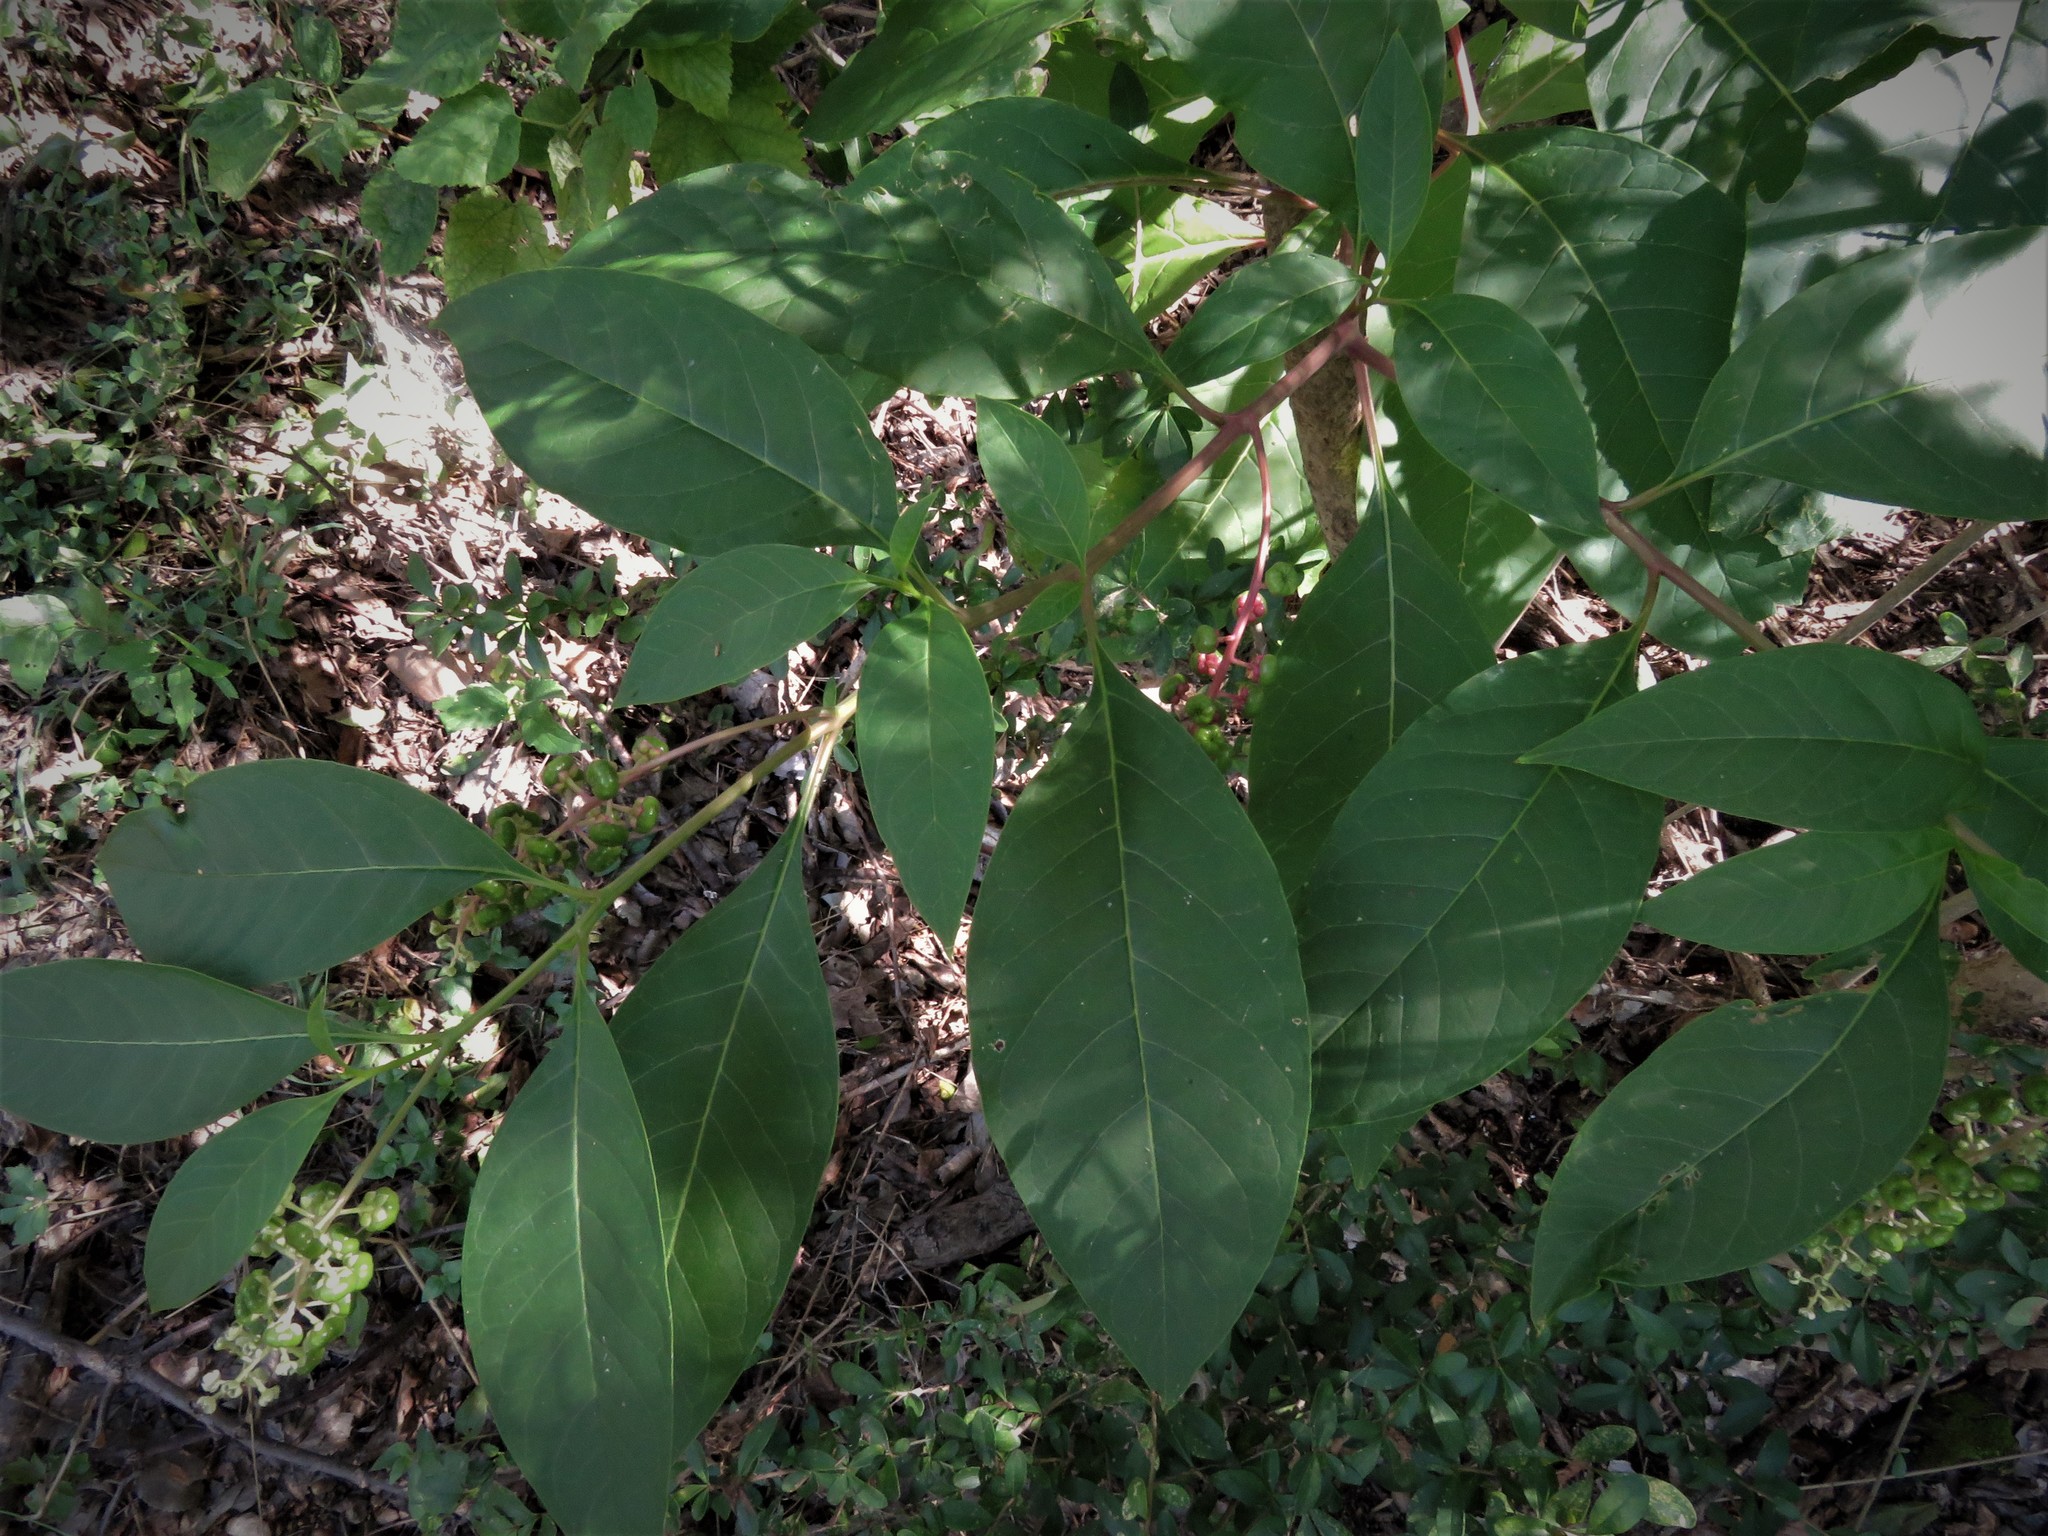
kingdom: Plantae
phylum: Tracheophyta
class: Magnoliopsida
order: Caryophyllales
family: Phytolaccaceae
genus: Phytolacca
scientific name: Phytolacca americana
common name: American pokeweed
